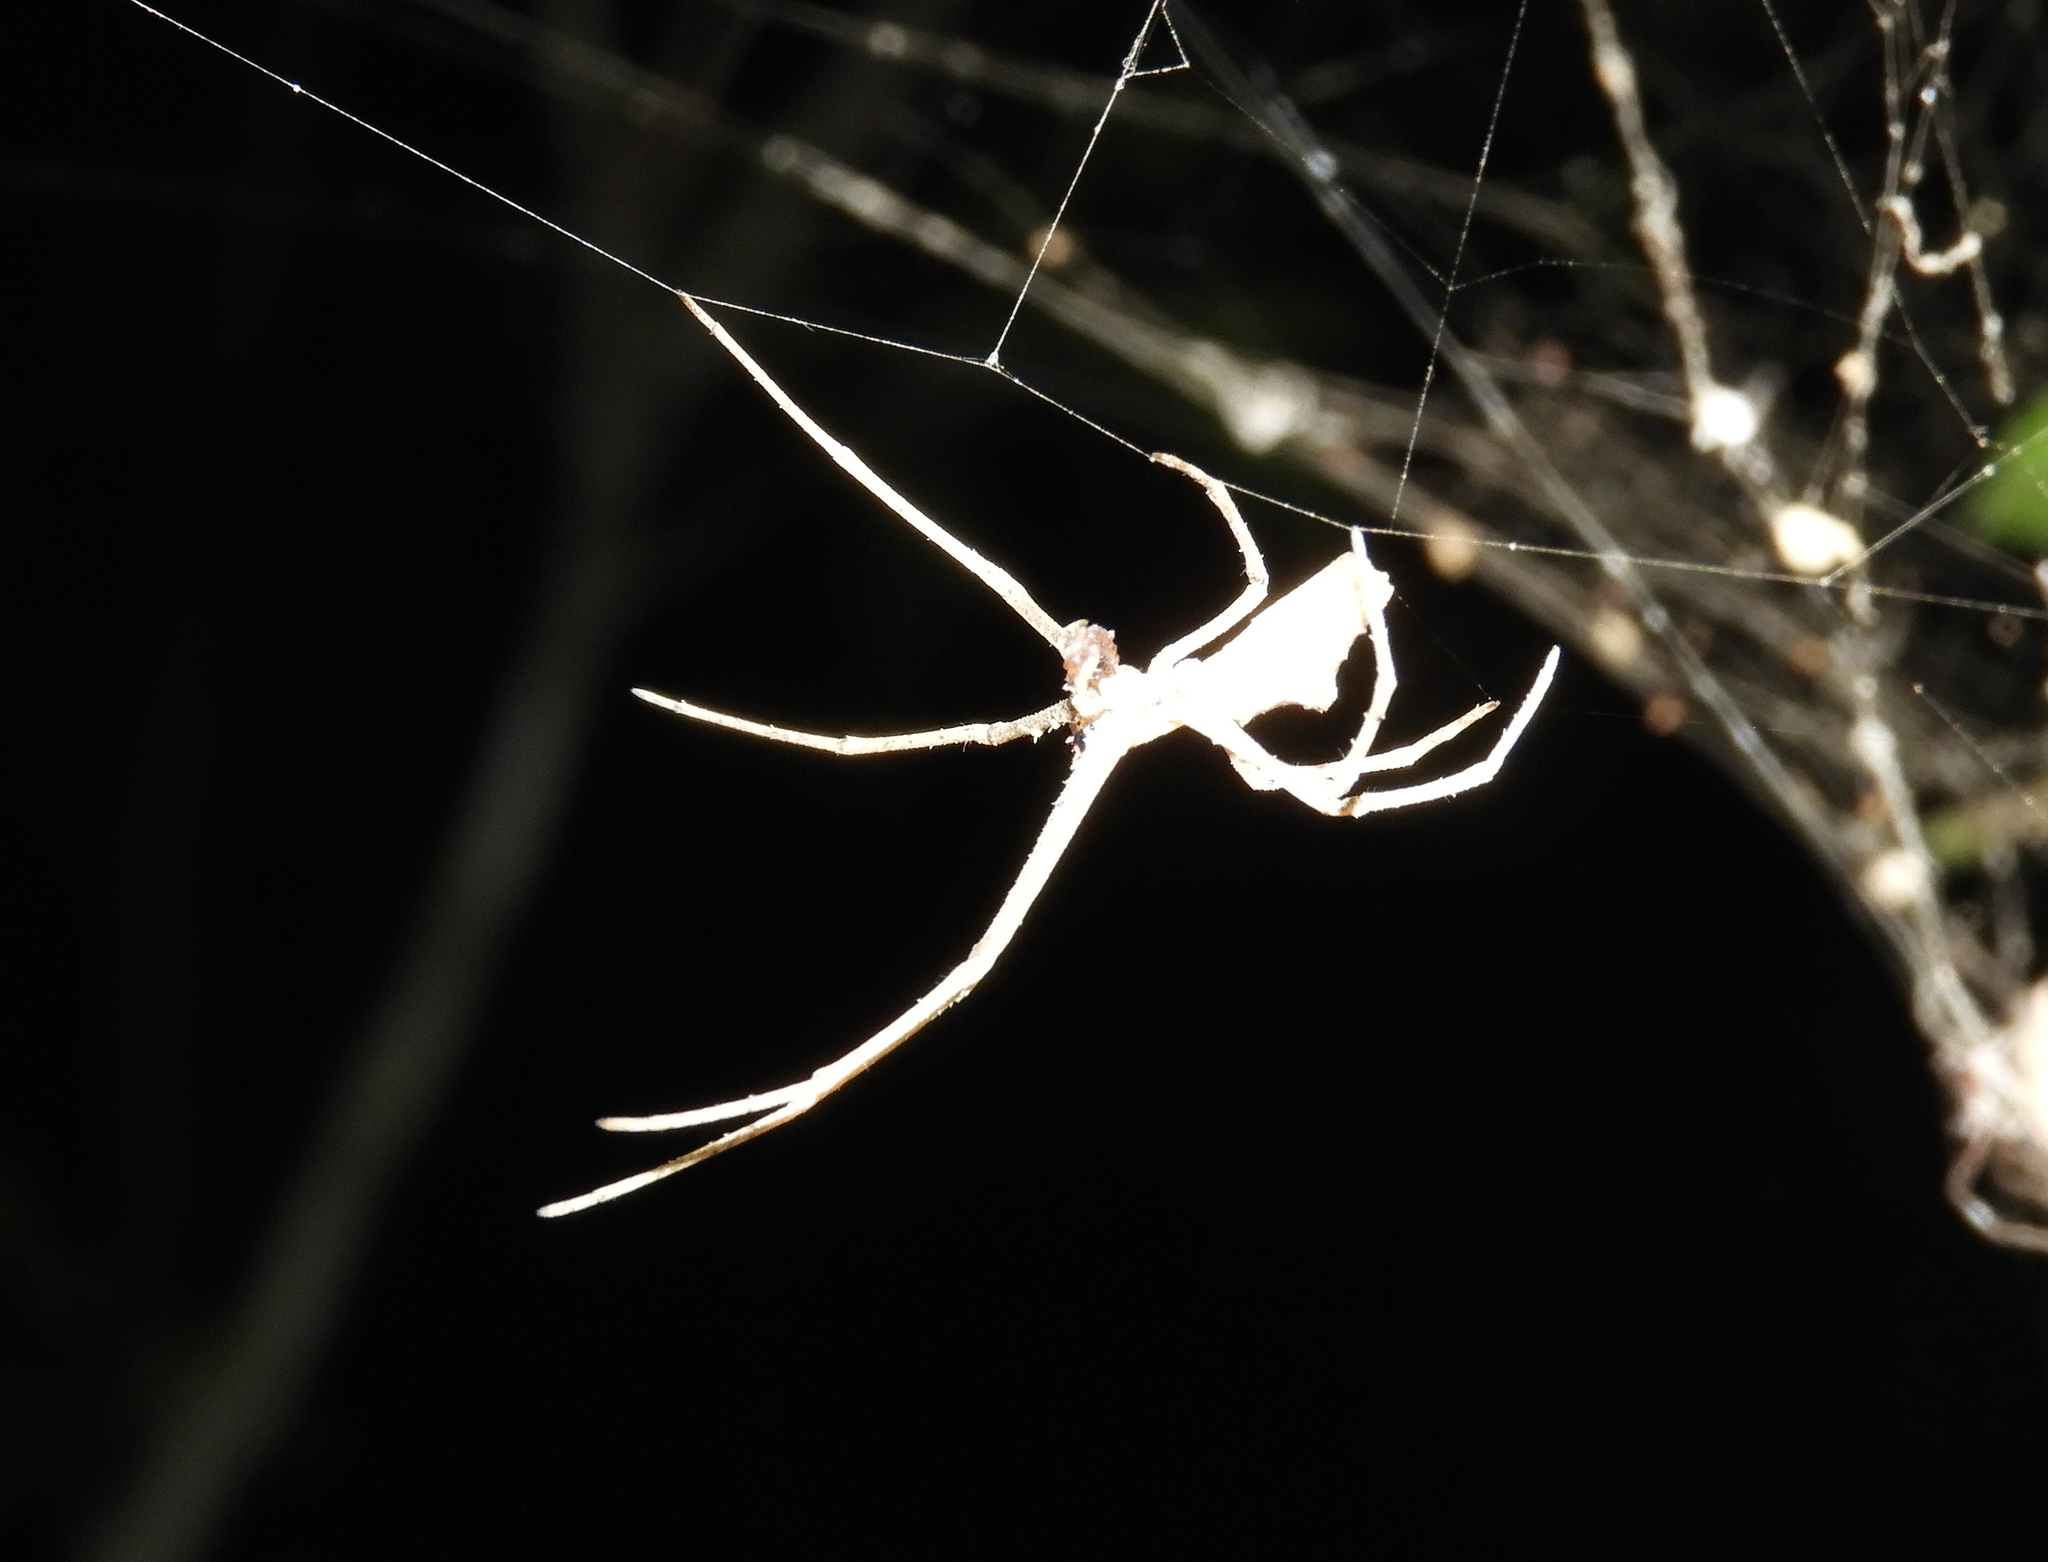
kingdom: Animalia
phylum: Arthropoda
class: Arachnida
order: Araneae
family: Deinopidae
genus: Deinopis
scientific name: Deinopis aurita
